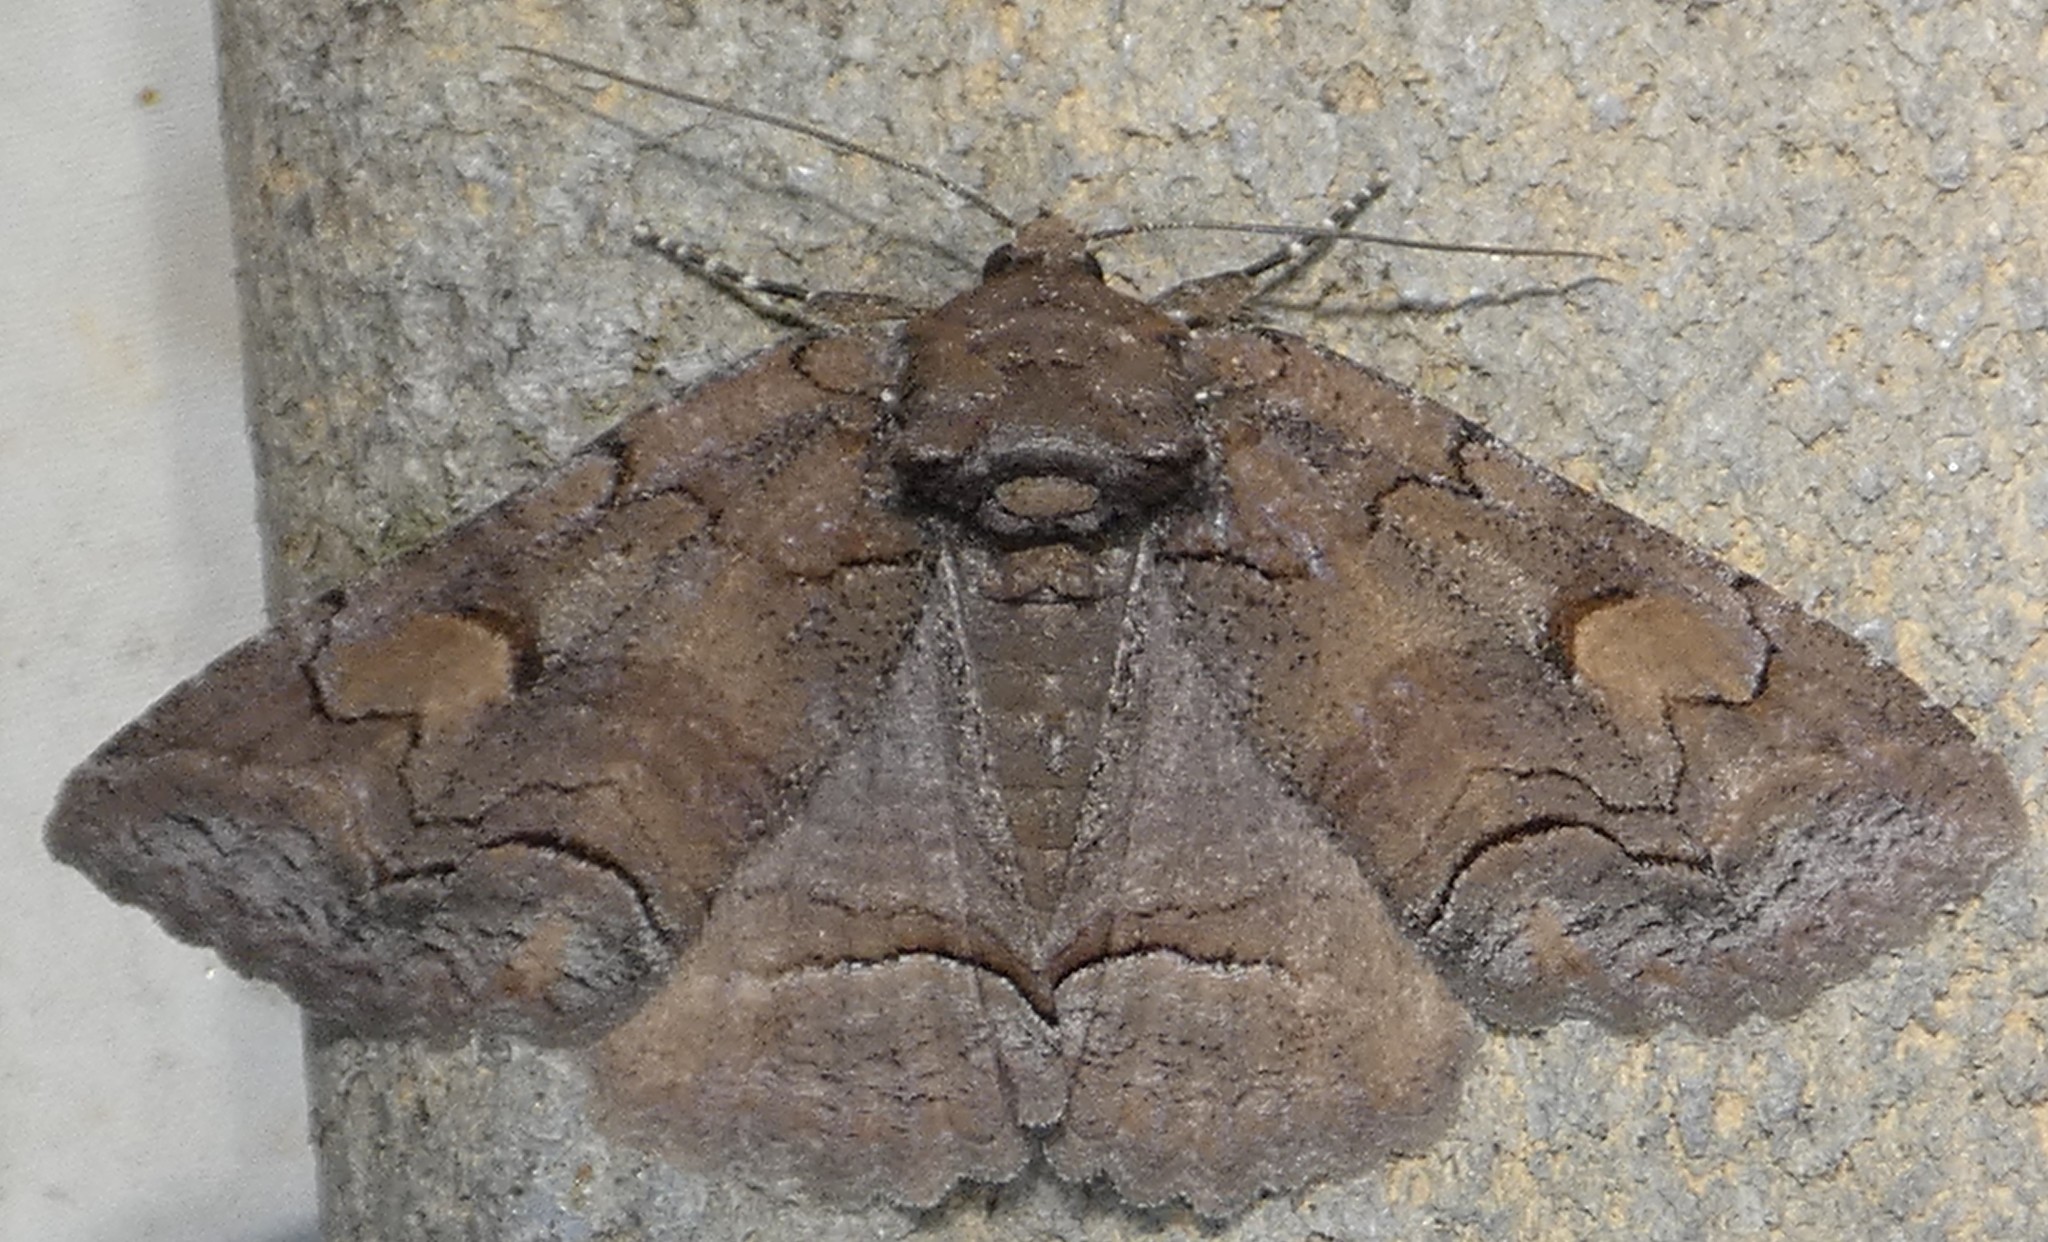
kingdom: Animalia
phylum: Arthropoda
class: Insecta
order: Lepidoptera
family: Erebidae
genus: Zale
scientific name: Zale helata
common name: Brown-spotted zale moth
